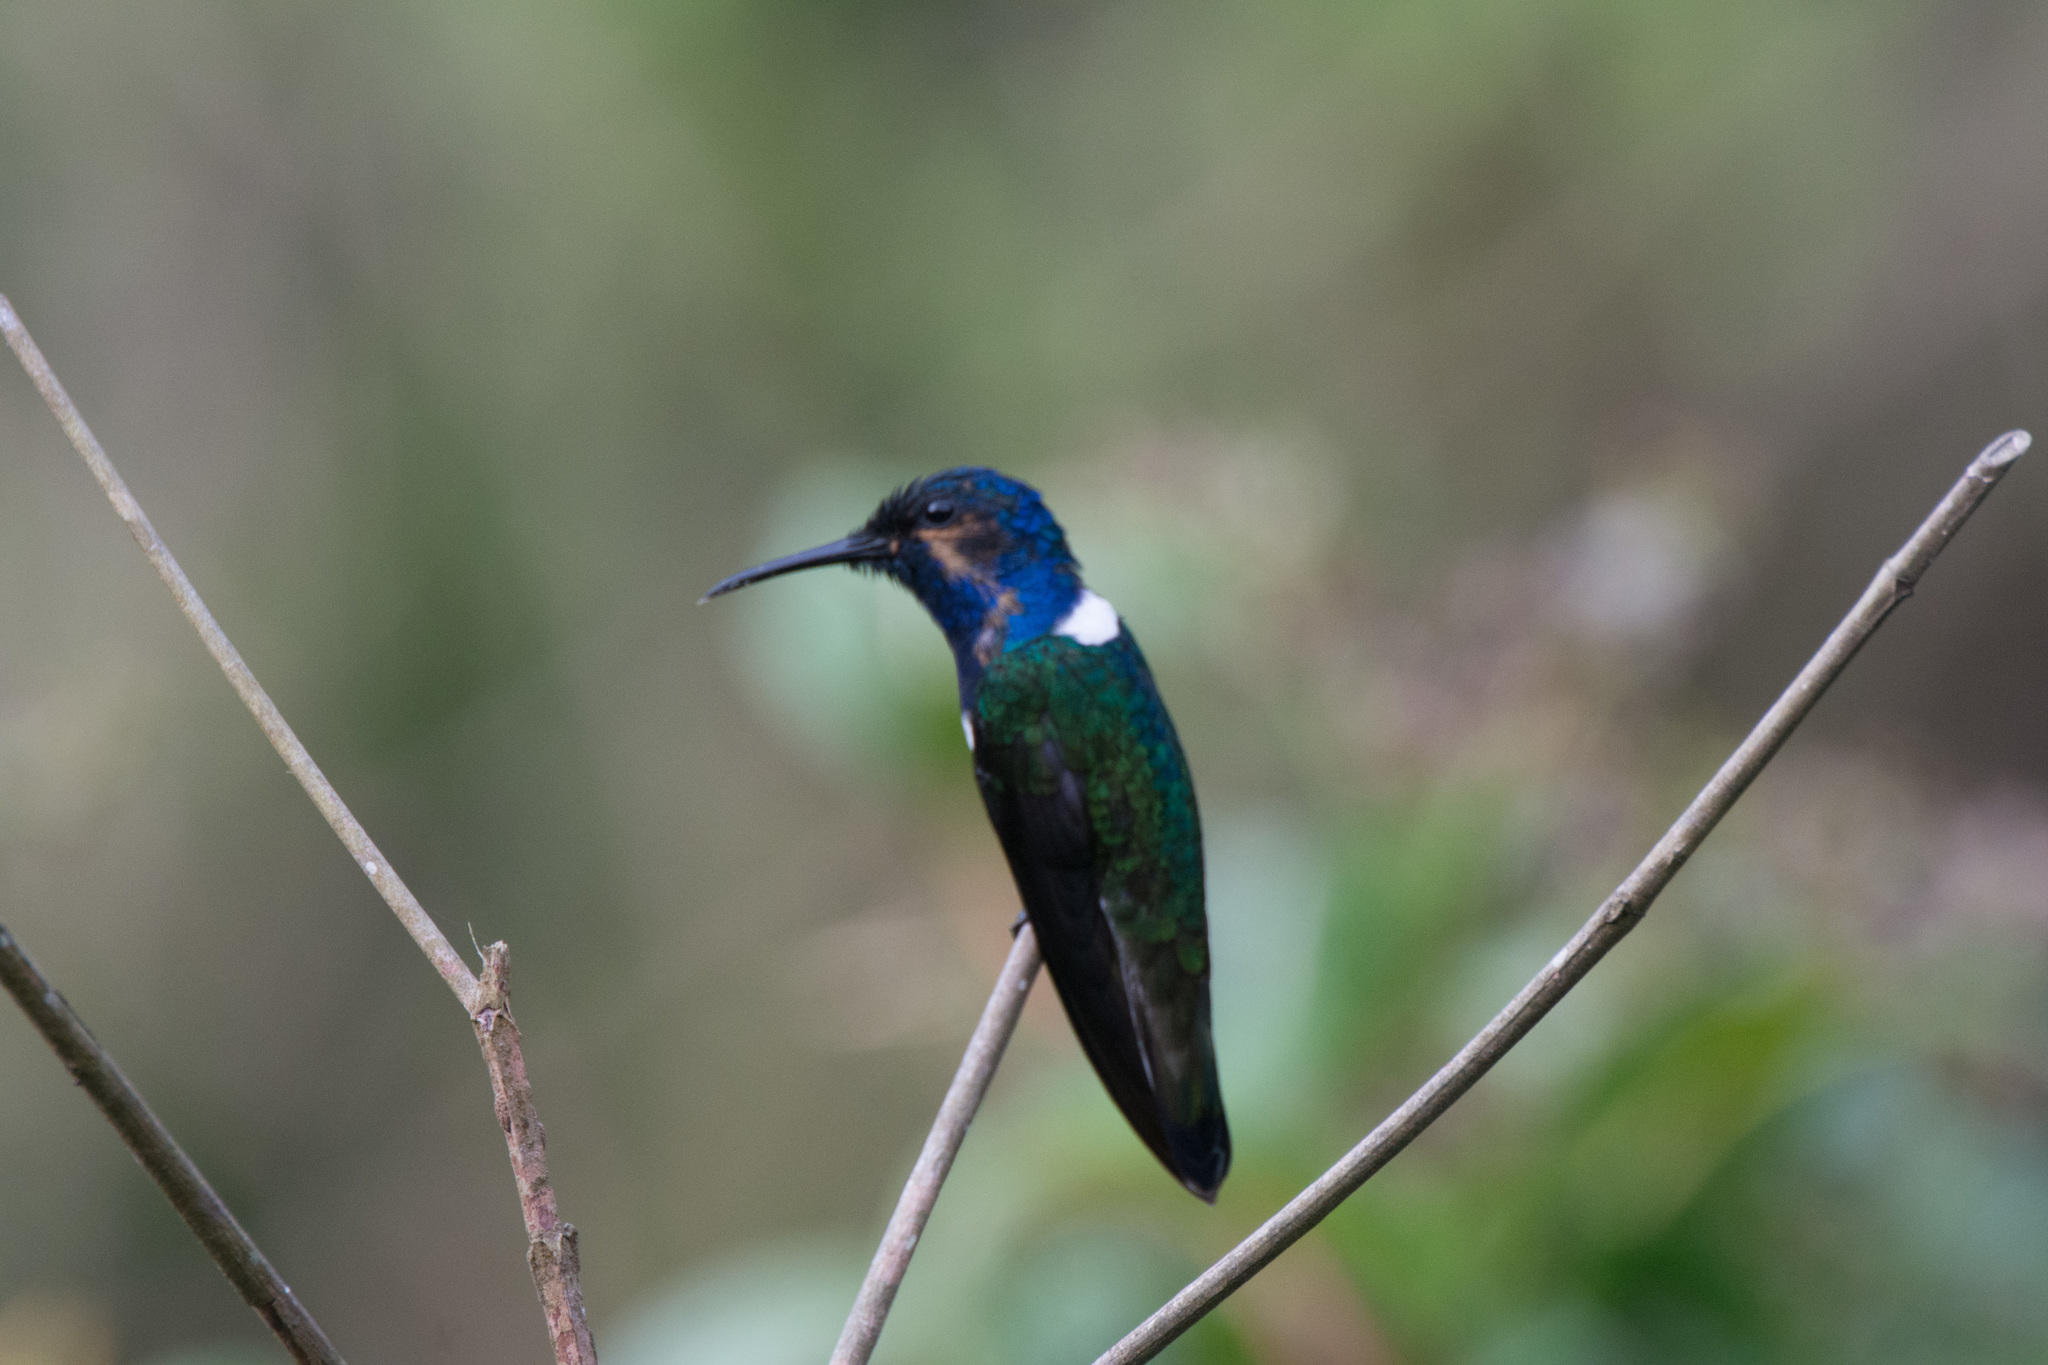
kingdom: Animalia
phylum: Chordata
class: Aves
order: Apodiformes
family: Trochilidae
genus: Florisuga
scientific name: Florisuga mellivora
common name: White-necked jacobin
